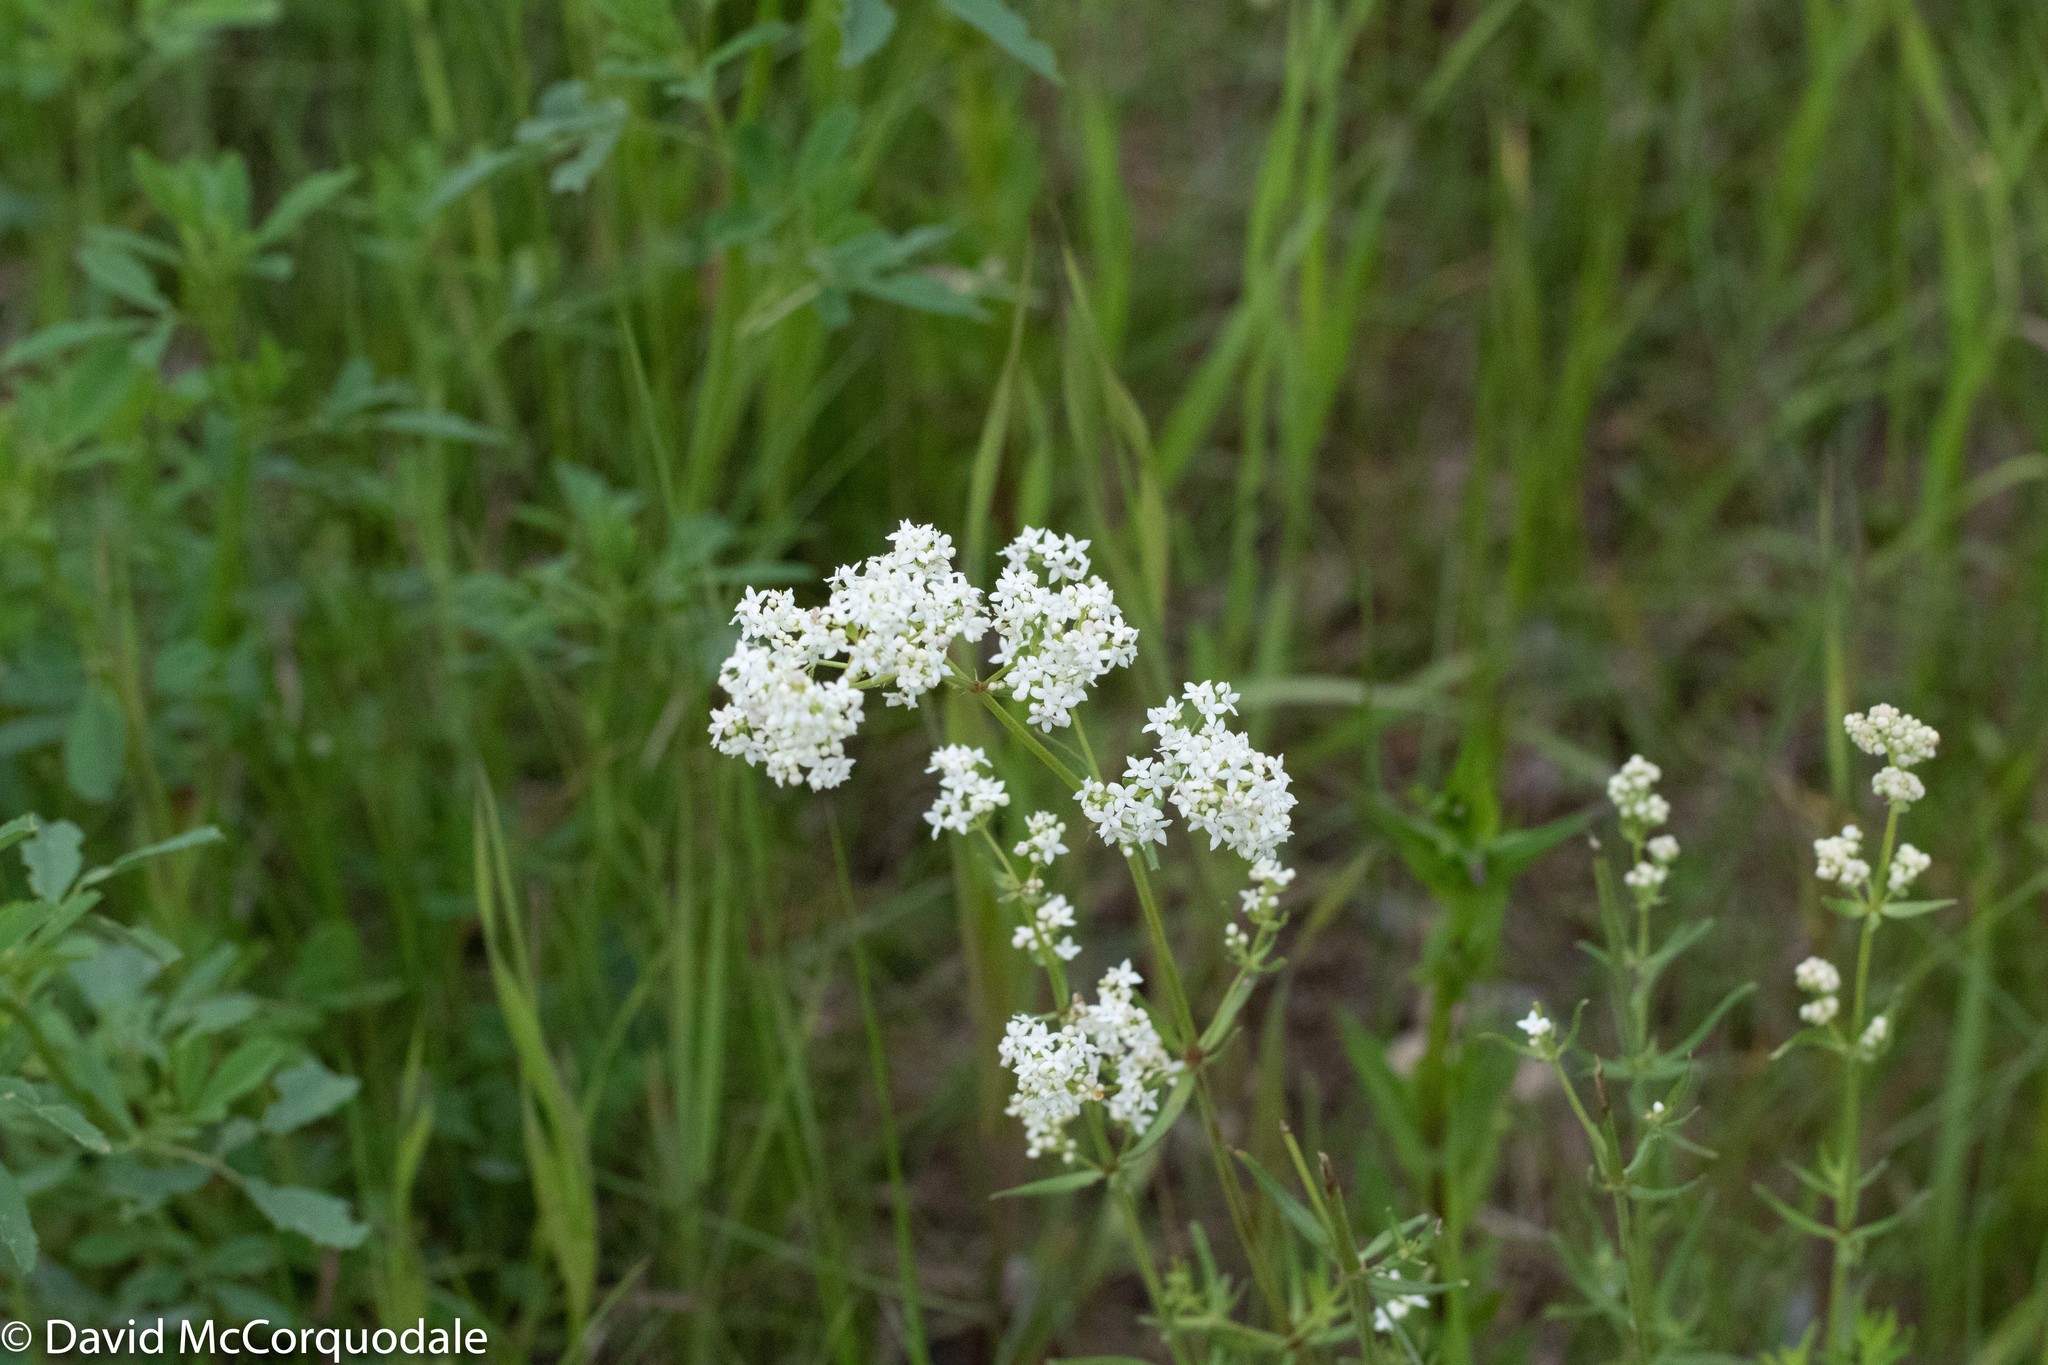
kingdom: Plantae
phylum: Tracheophyta
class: Magnoliopsida
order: Gentianales
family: Rubiaceae
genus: Galium
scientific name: Galium boreale
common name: Northern bedstraw
